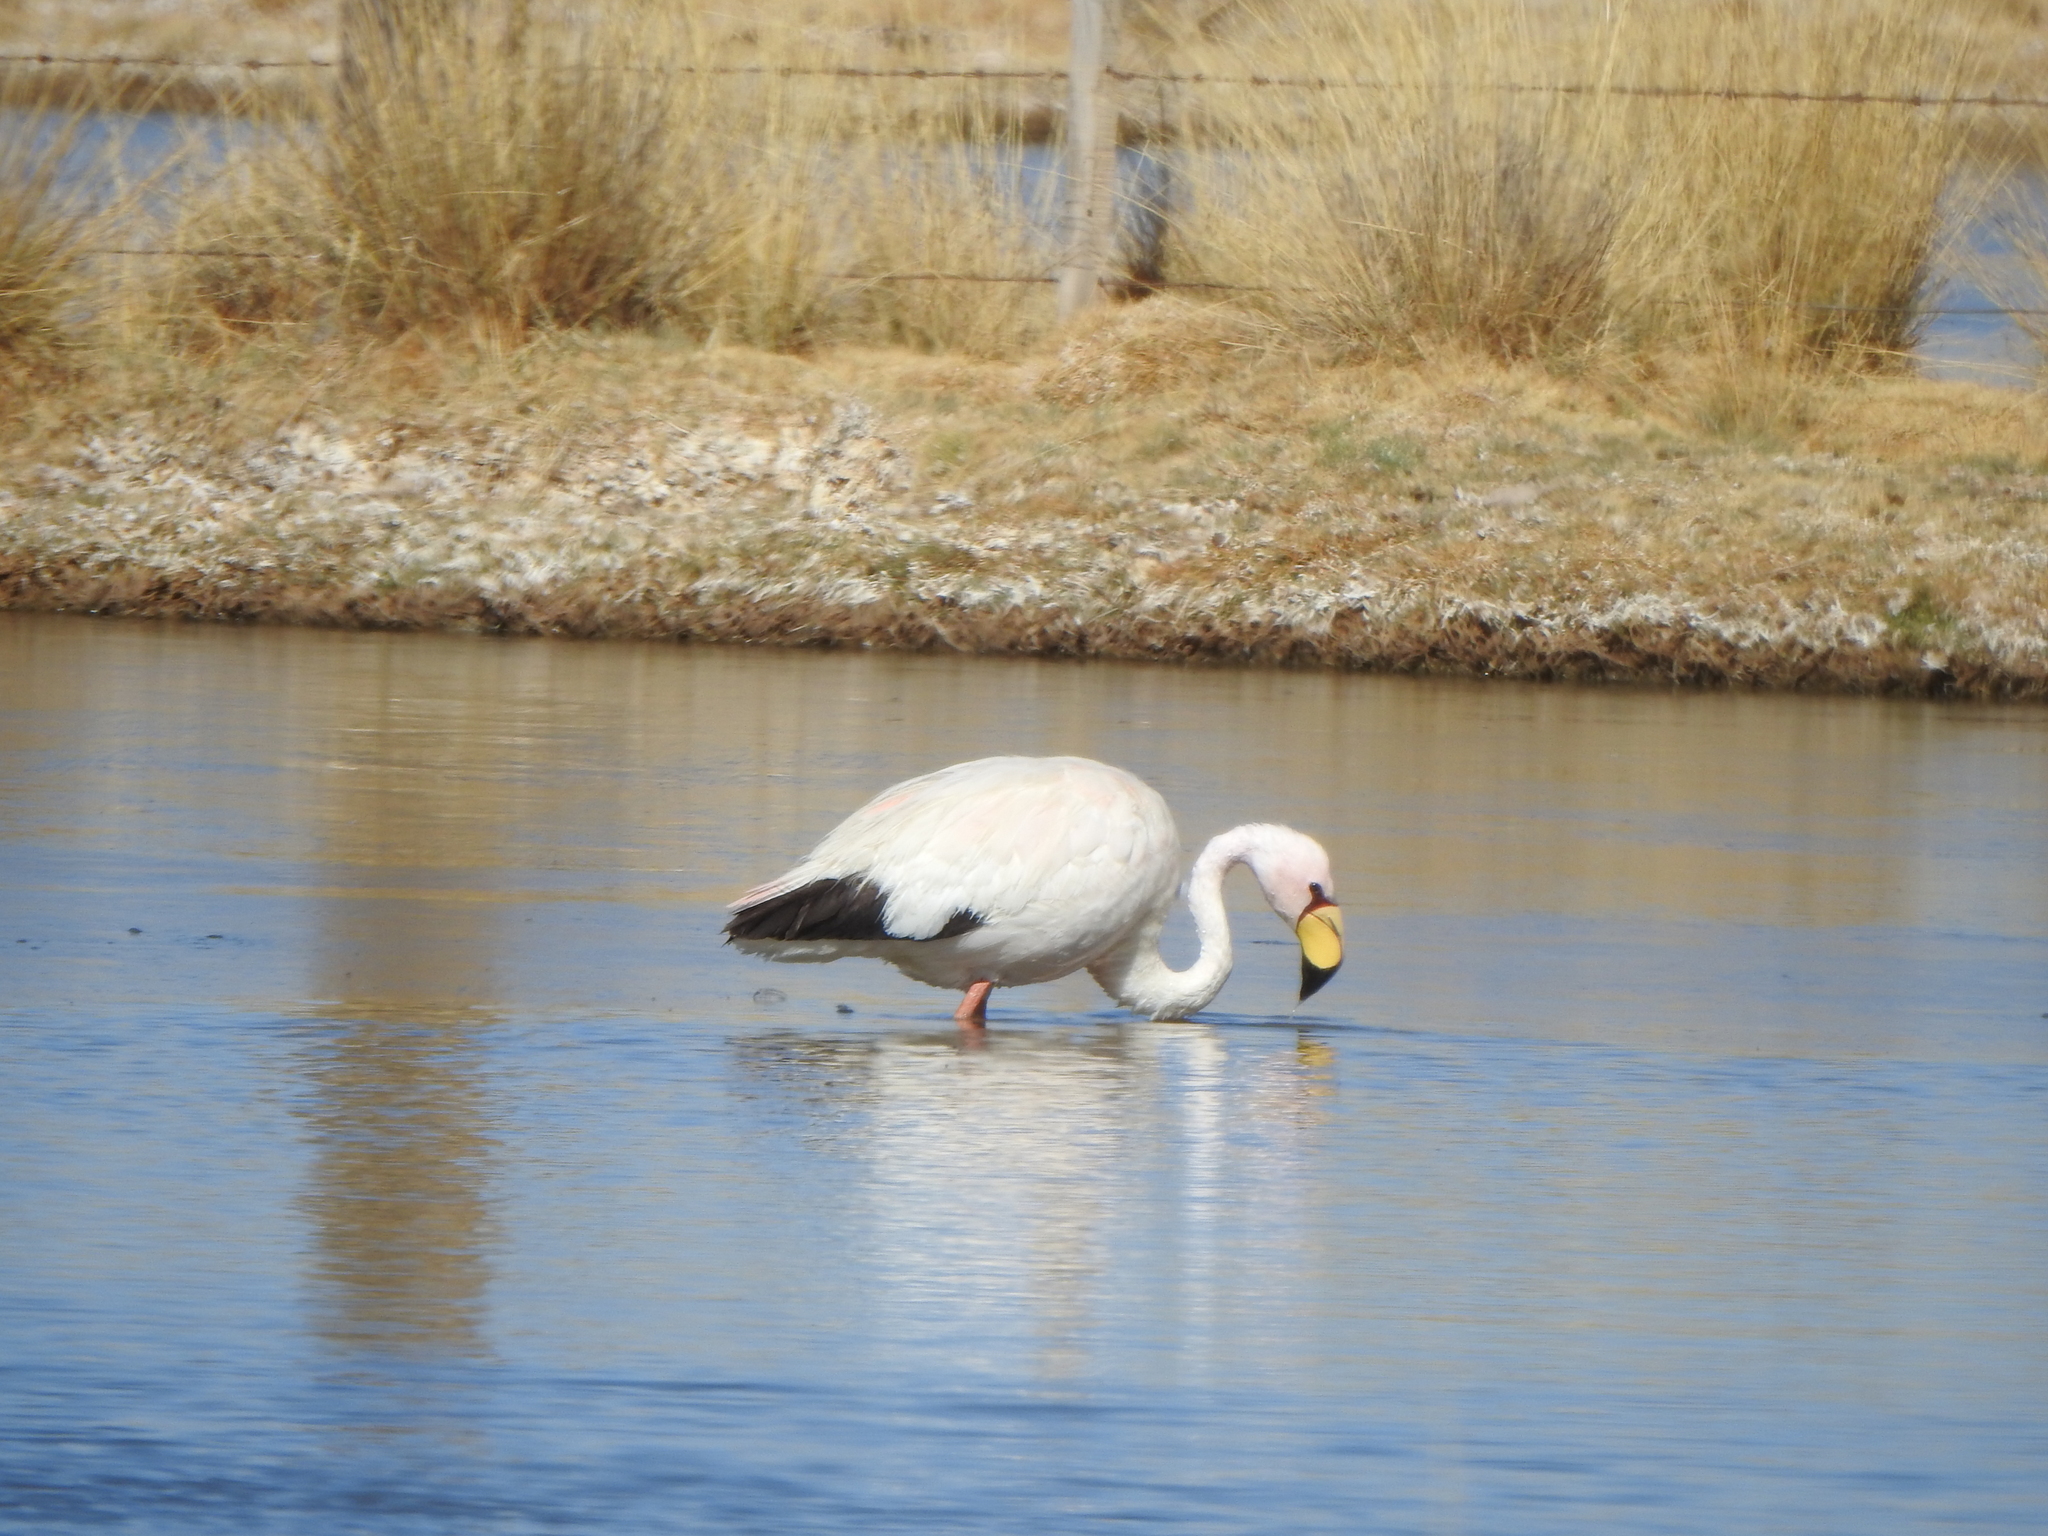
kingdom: Animalia
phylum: Chordata
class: Aves
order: Phoenicopteriformes
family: Phoenicopteridae
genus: Phoenicoparrus
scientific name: Phoenicoparrus jamesi
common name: James's flamingo
